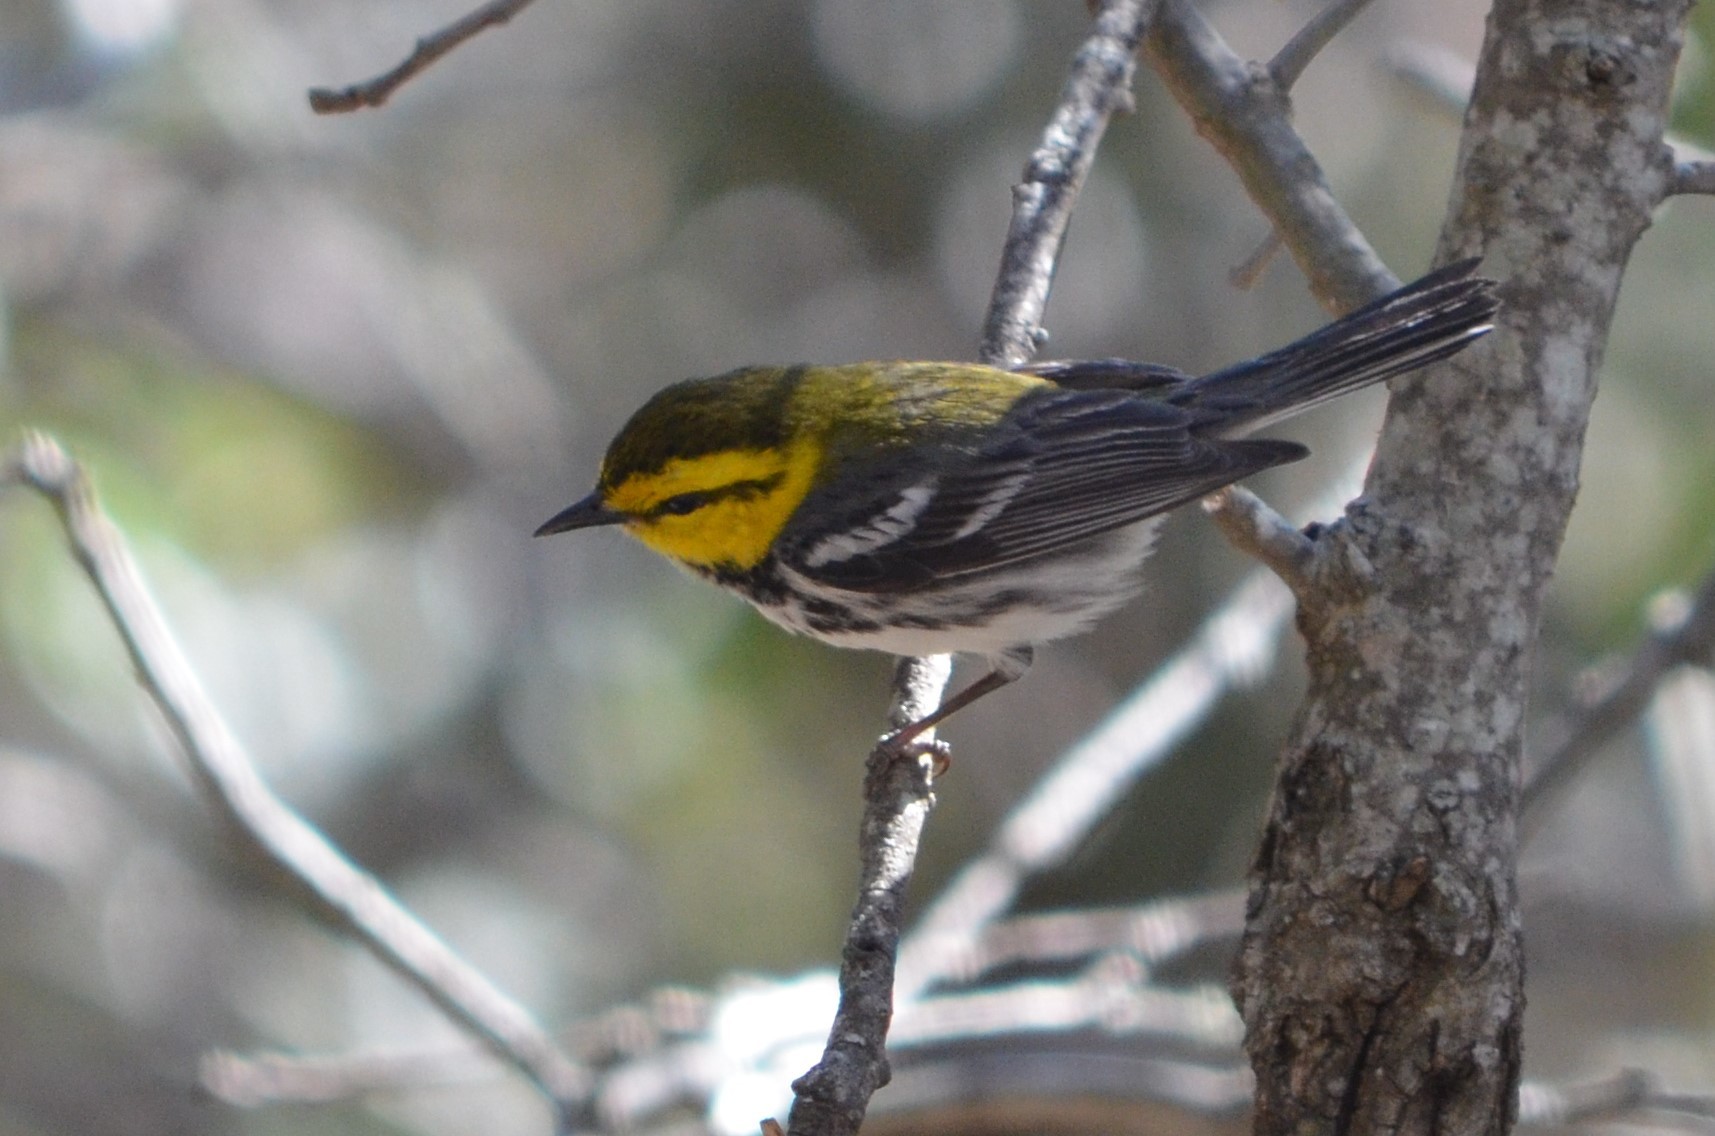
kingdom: Animalia
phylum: Chordata
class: Aves
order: Passeriformes
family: Parulidae
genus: Setophaga
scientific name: Setophaga chrysoparia
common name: Golden-cheeked warbler
